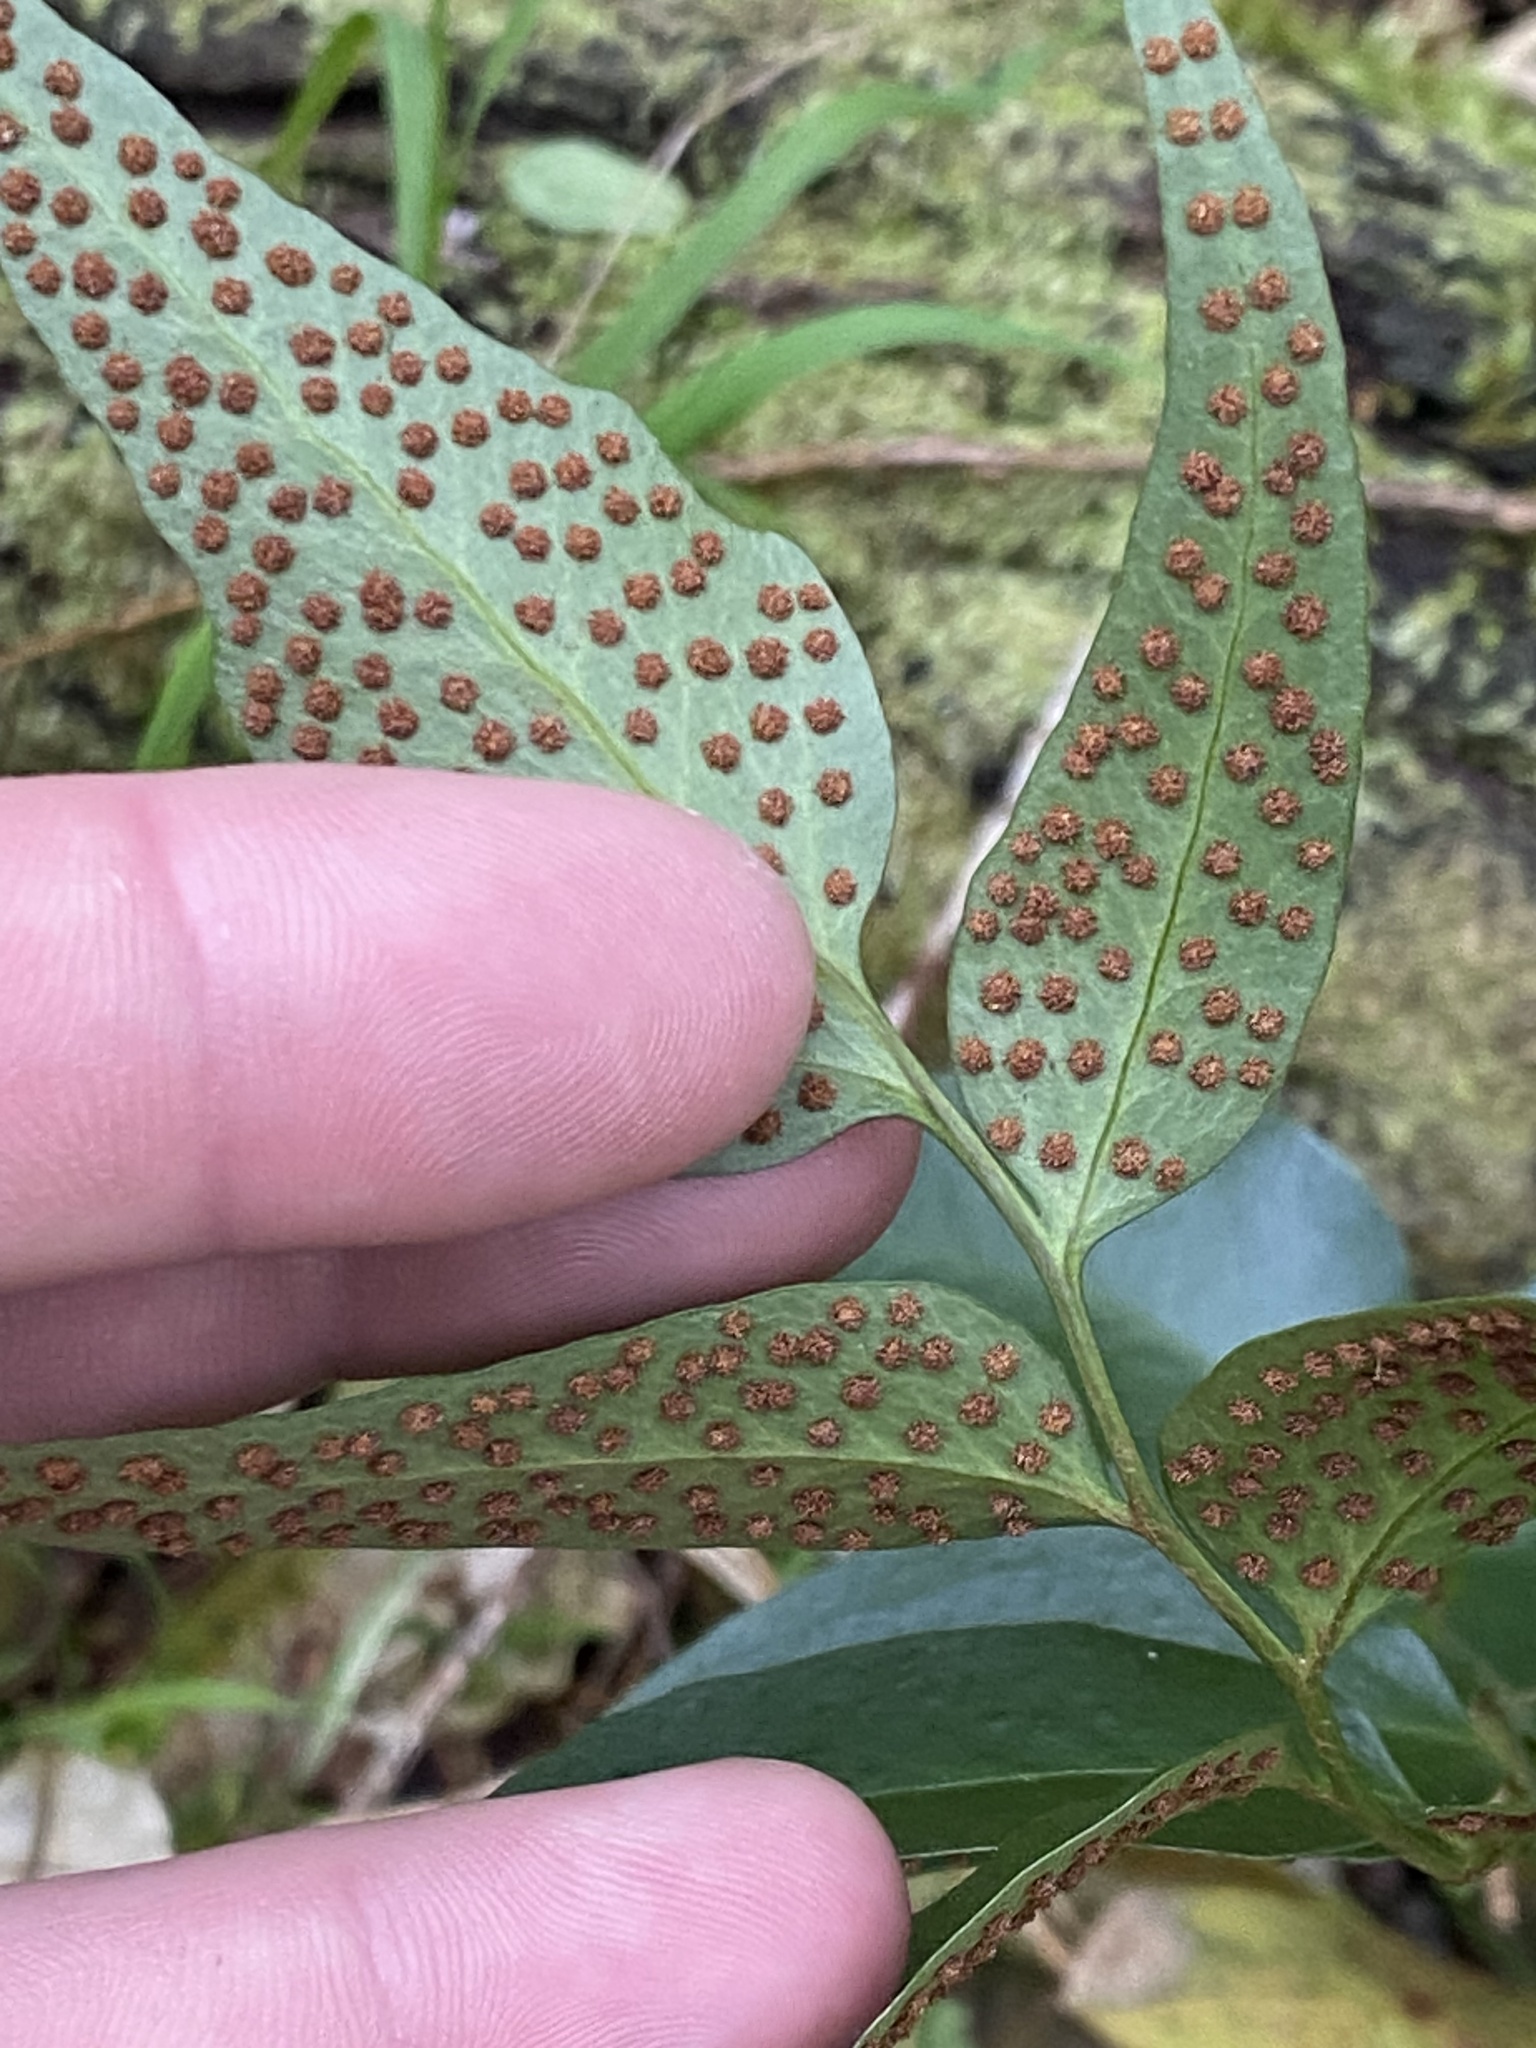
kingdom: Plantae
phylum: Tracheophyta
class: Polypodiopsida
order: Polypodiales
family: Dryopteridaceae
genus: Cyrtomium
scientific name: Cyrtomium falcatum
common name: House holly-fern
